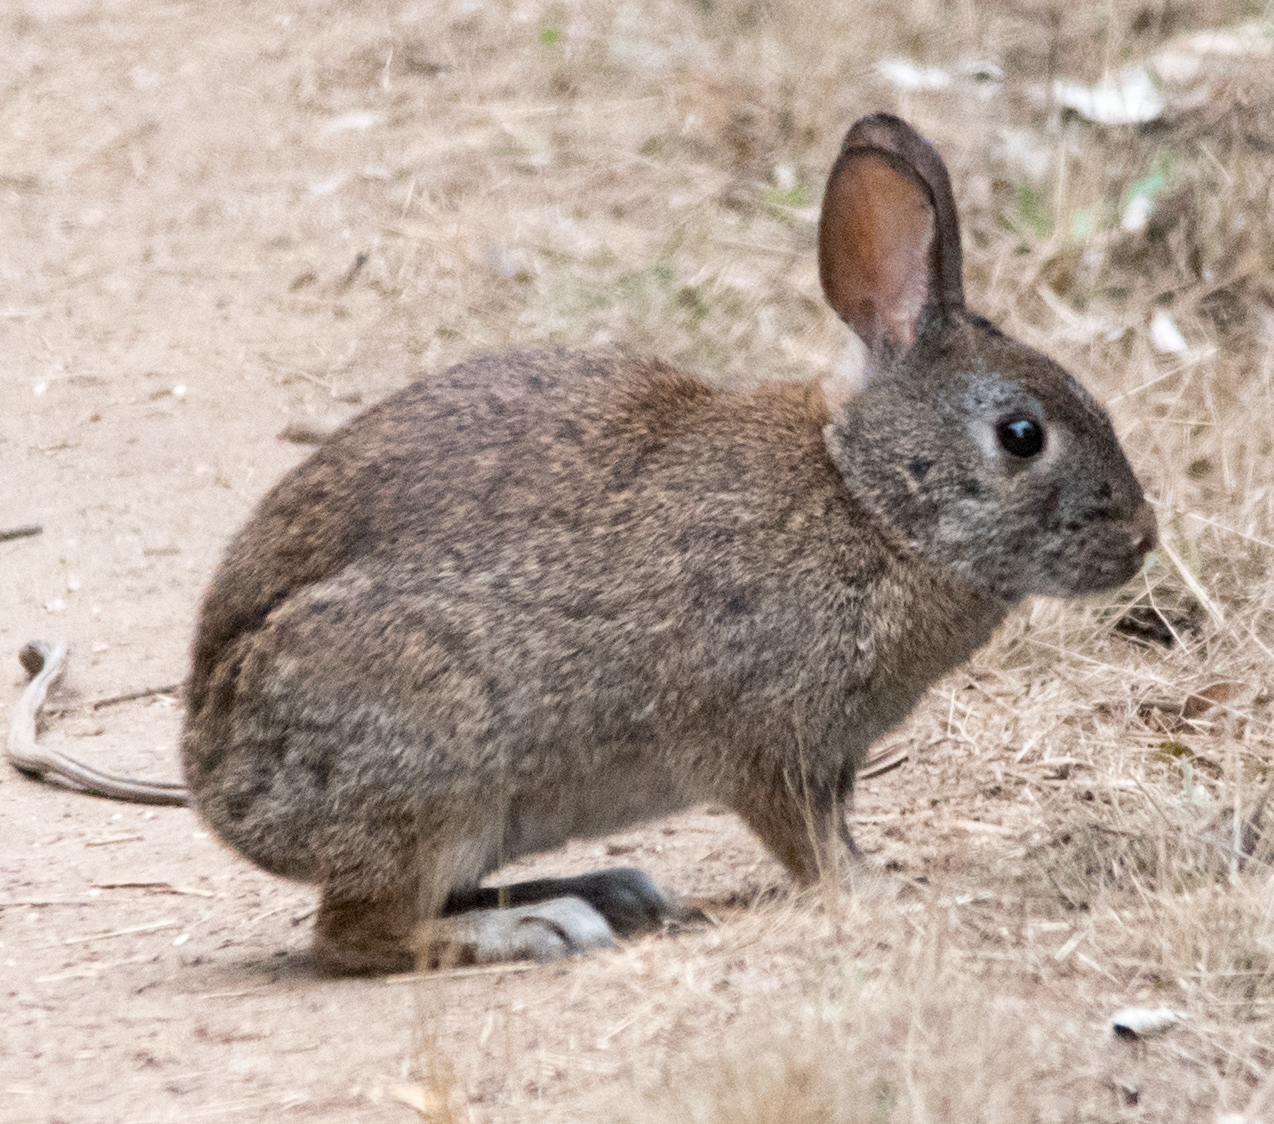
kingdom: Animalia
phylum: Chordata
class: Mammalia
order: Lagomorpha
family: Leporidae
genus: Sylvilagus
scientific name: Sylvilagus bachmani
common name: Brush rabbit
